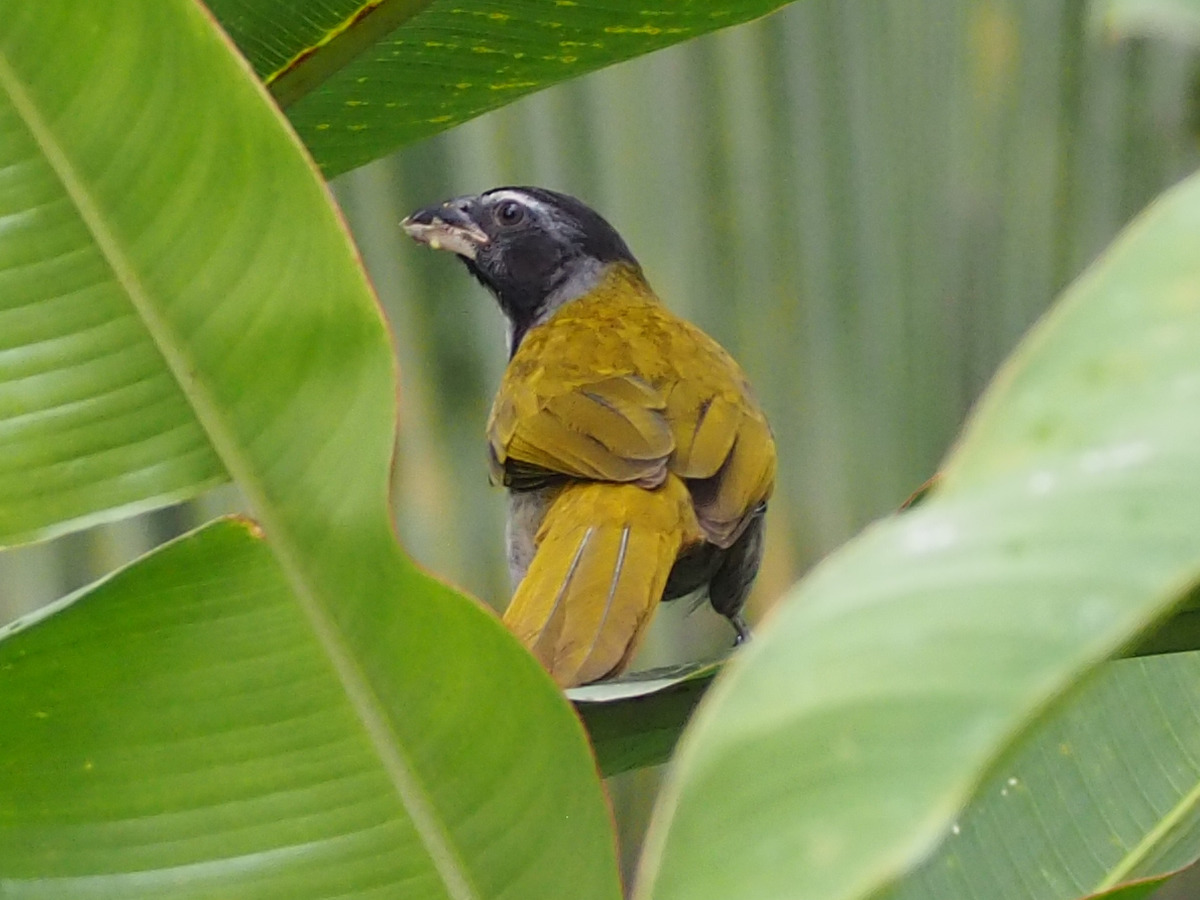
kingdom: Animalia
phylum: Chordata
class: Aves
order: Passeriformes
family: Thraupidae
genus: Saltator
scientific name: Saltator atriceps
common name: Black-headed saltator
